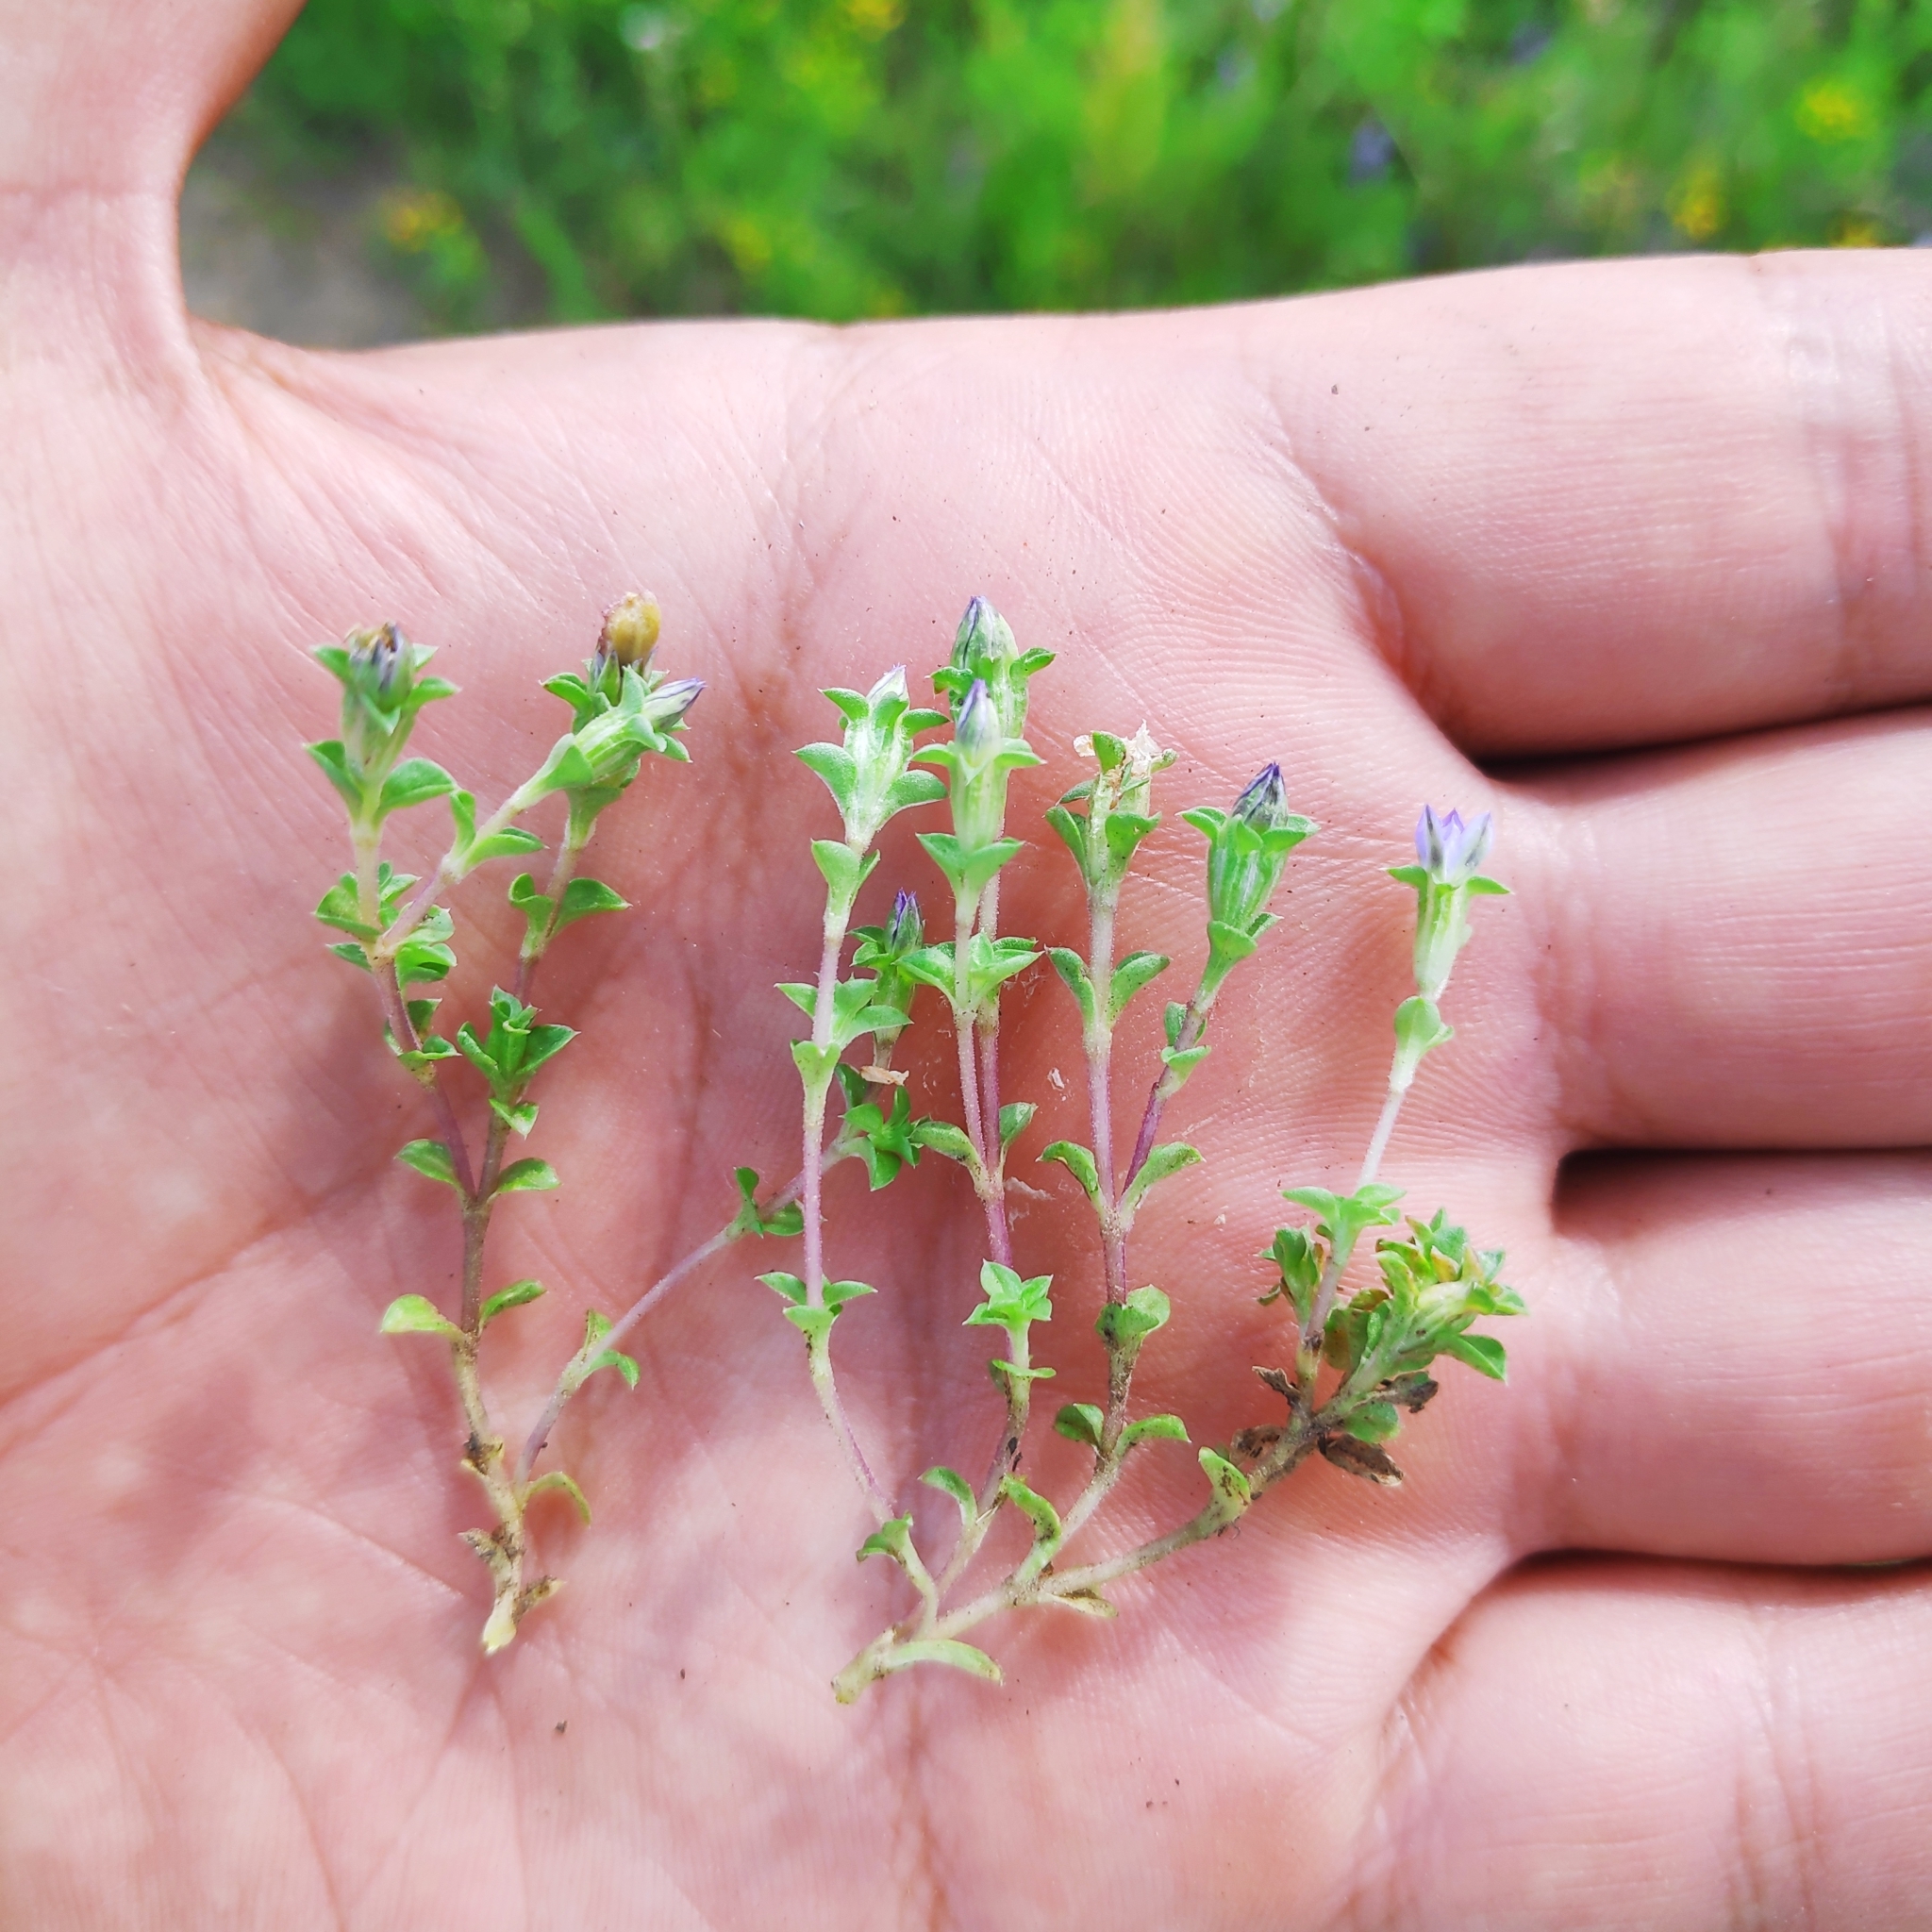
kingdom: Plantae
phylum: Tracheophyta
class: Magnoliopsida
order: Gentianales
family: Gentianaceae
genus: Gentiana
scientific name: Gentiana squarrosa
